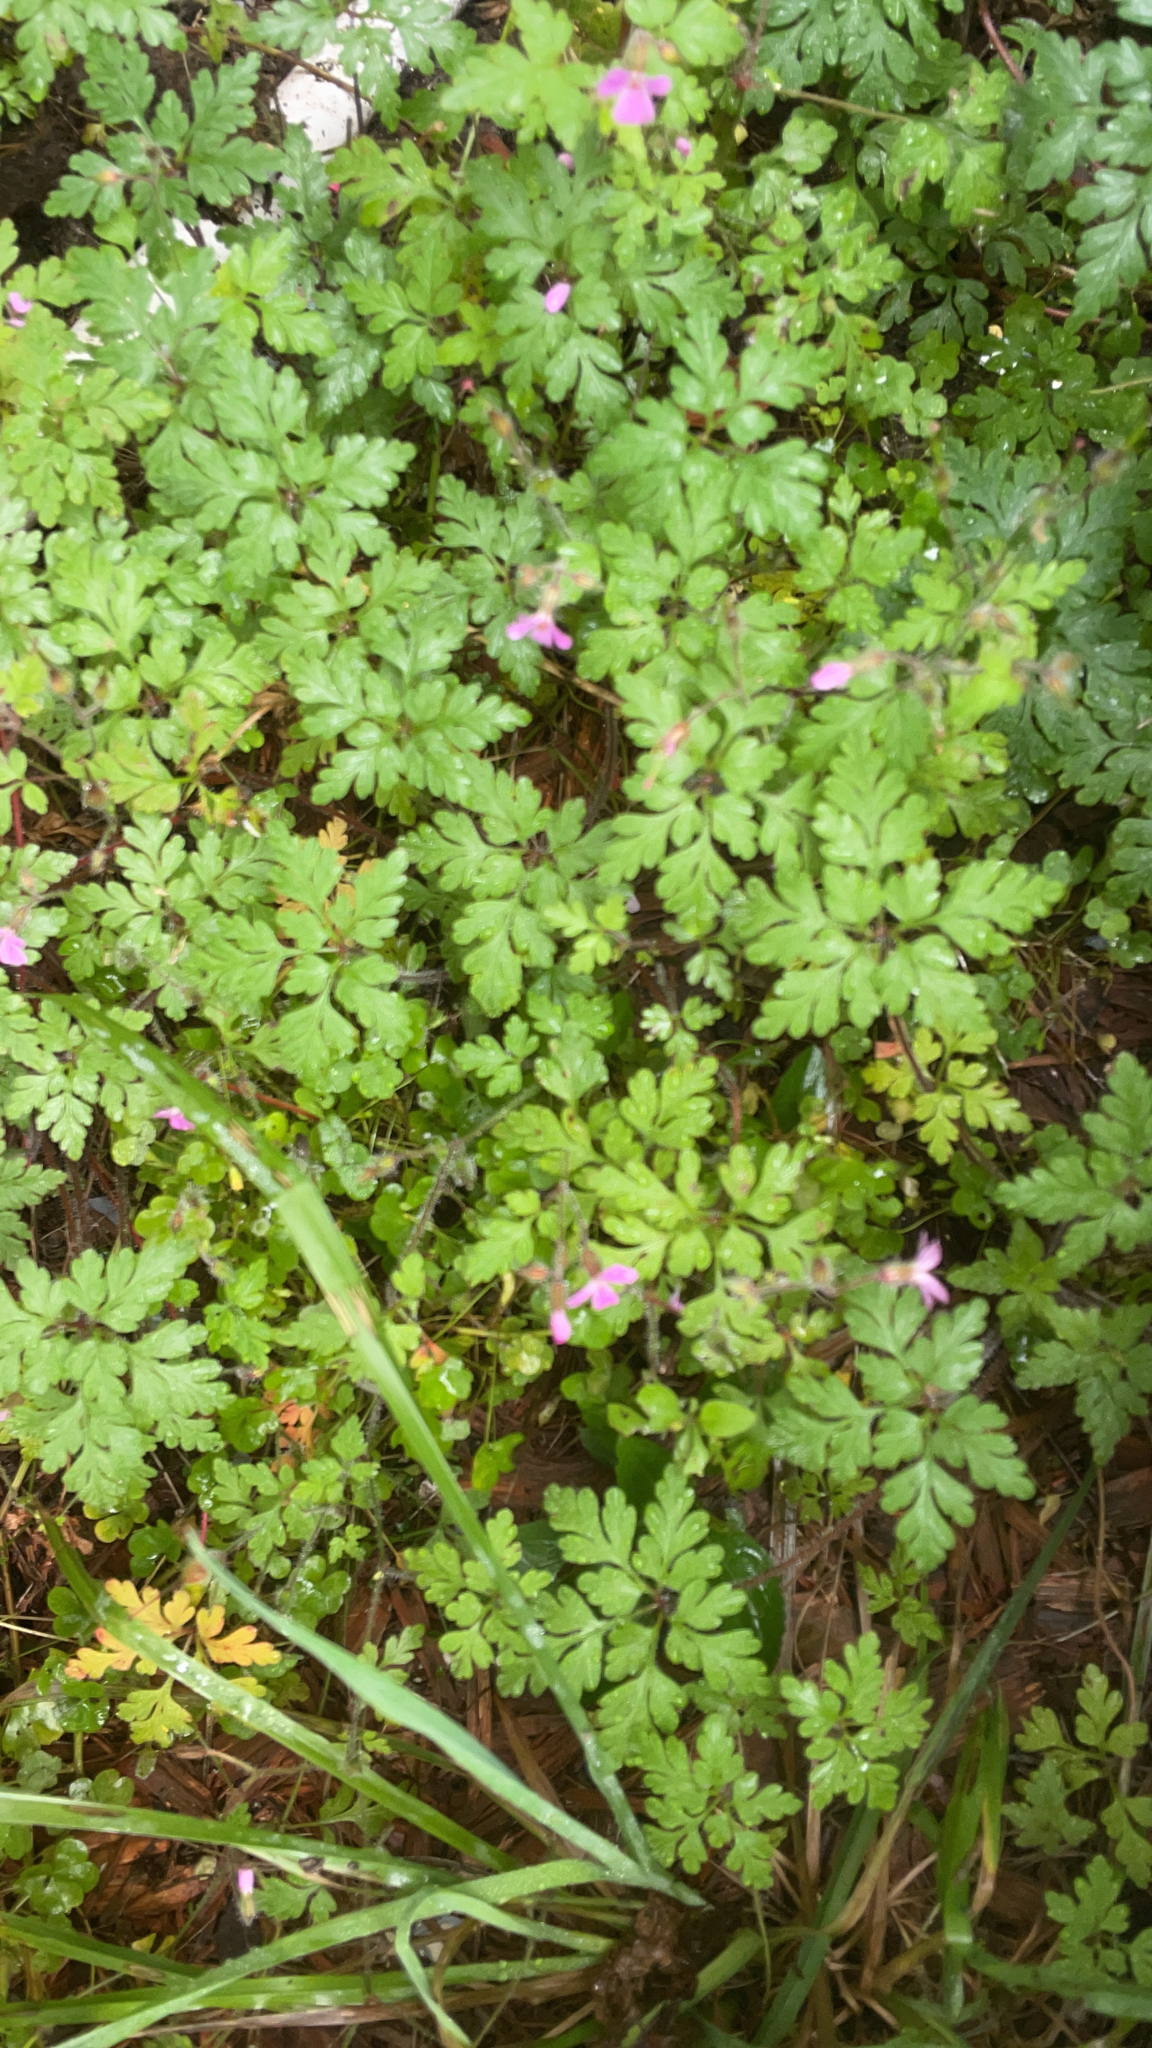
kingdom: Plantae
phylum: Tracheophyta
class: Magnoliopsida
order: Geraniales
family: Geraniaceae
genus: Geranium
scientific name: Geranium robertianum
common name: Herb-robert
